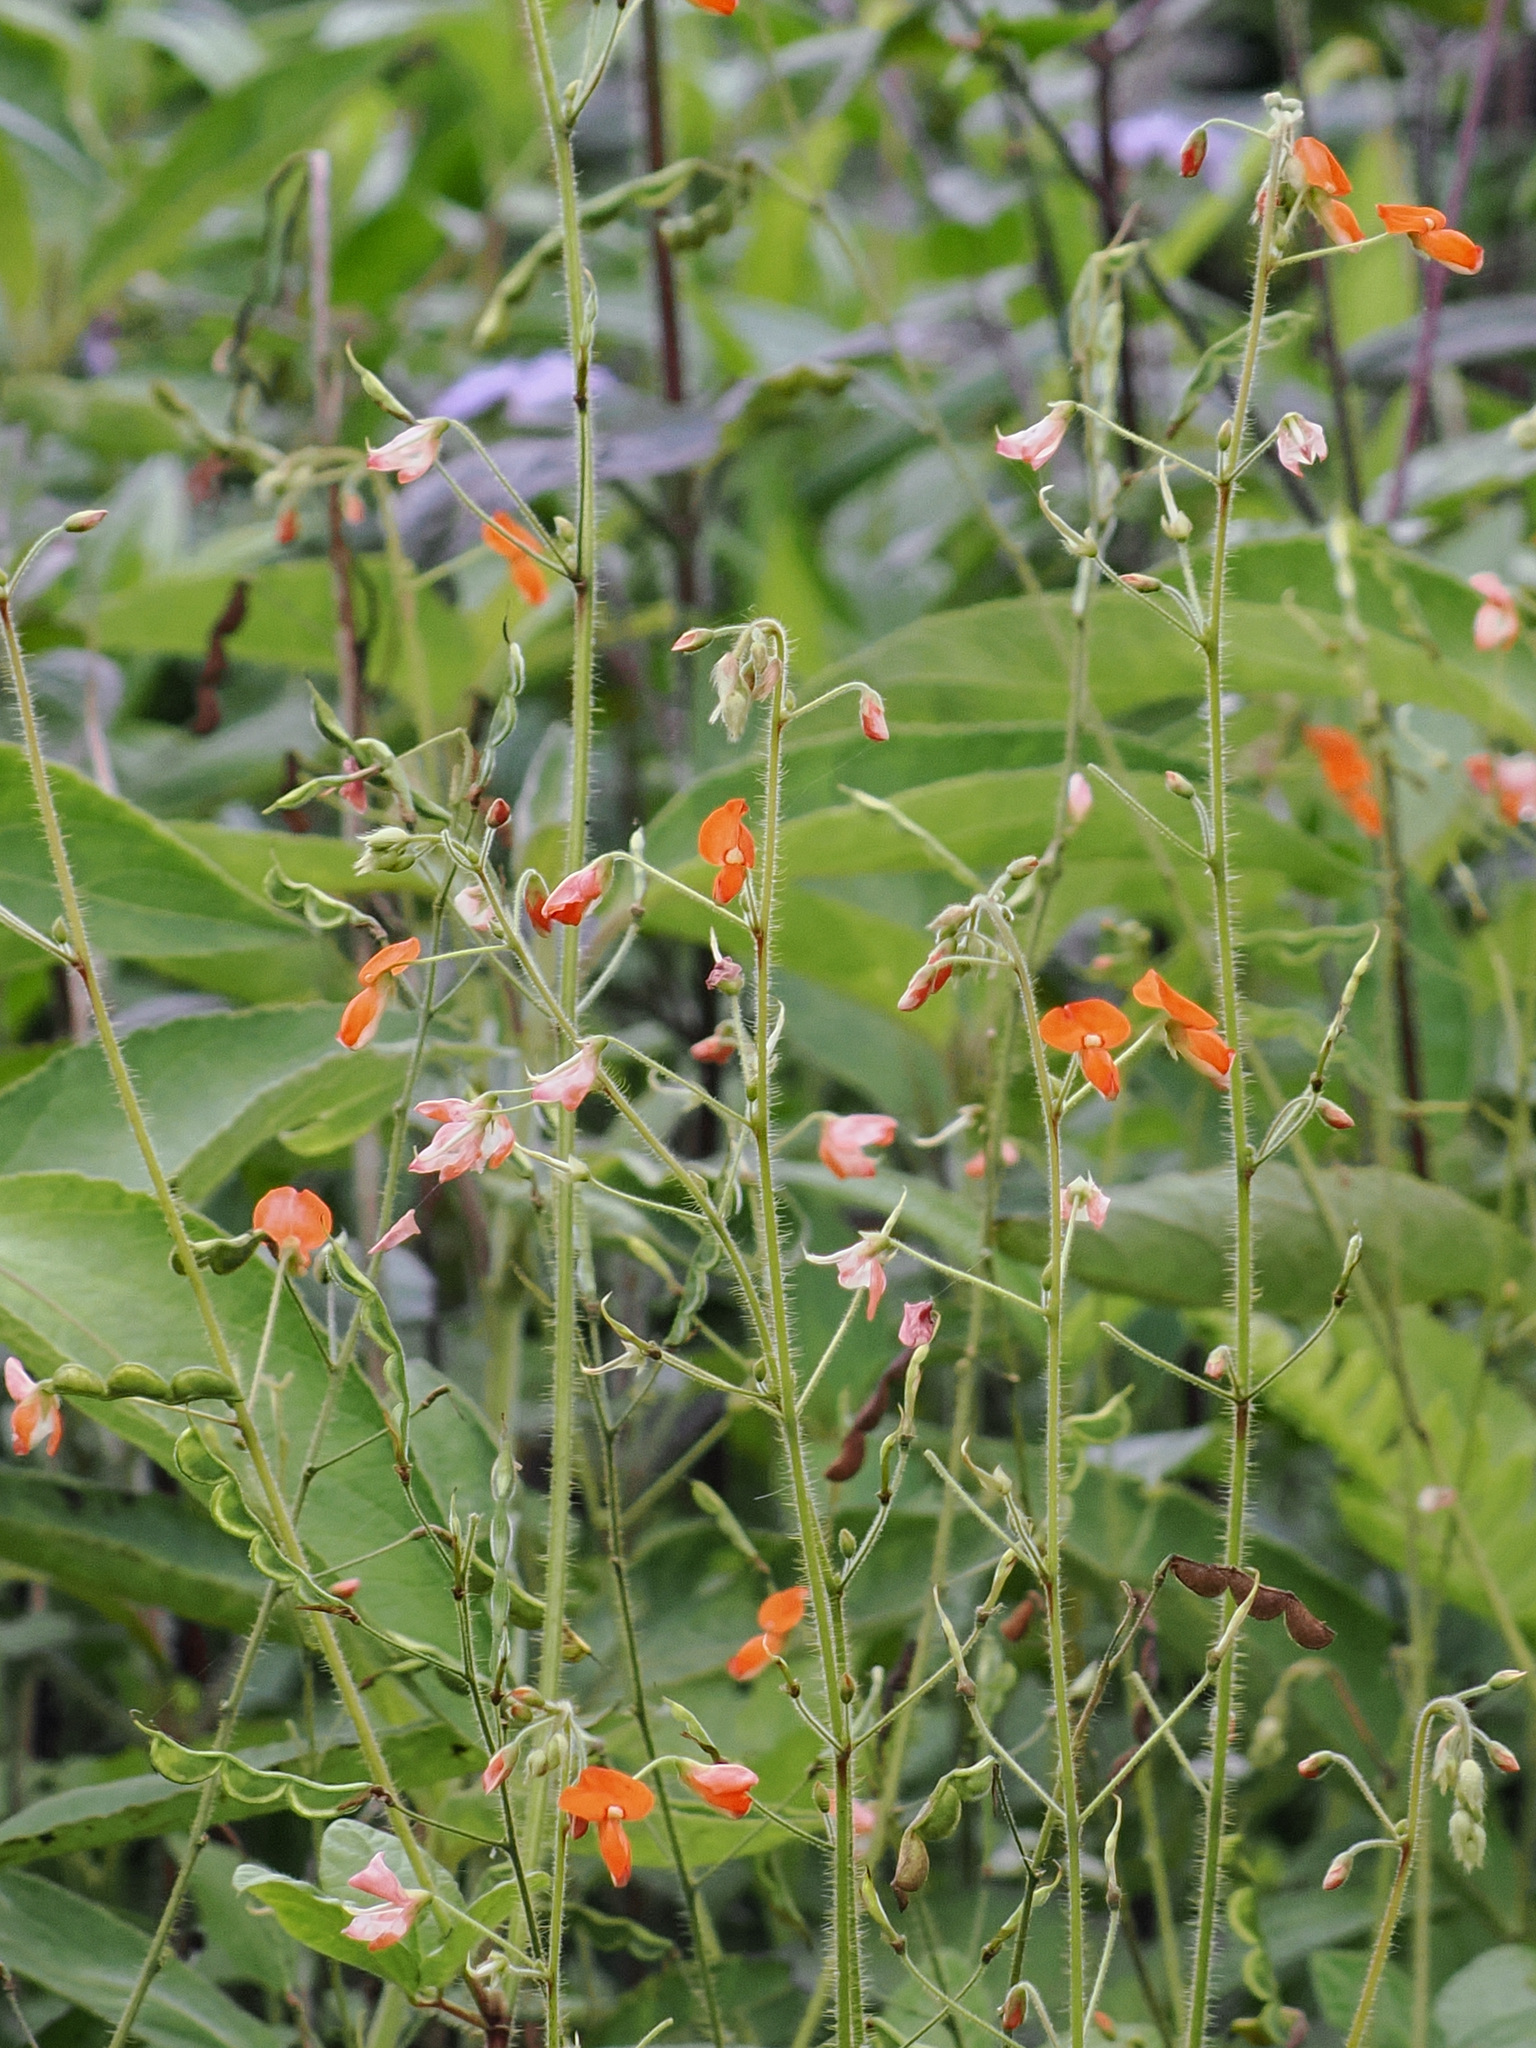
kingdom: Plantae
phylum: Tracheophyta
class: Magnoliopsida
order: Fabales
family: Fabaceae
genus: Hylodesmum
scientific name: Hylodesmum repandum
